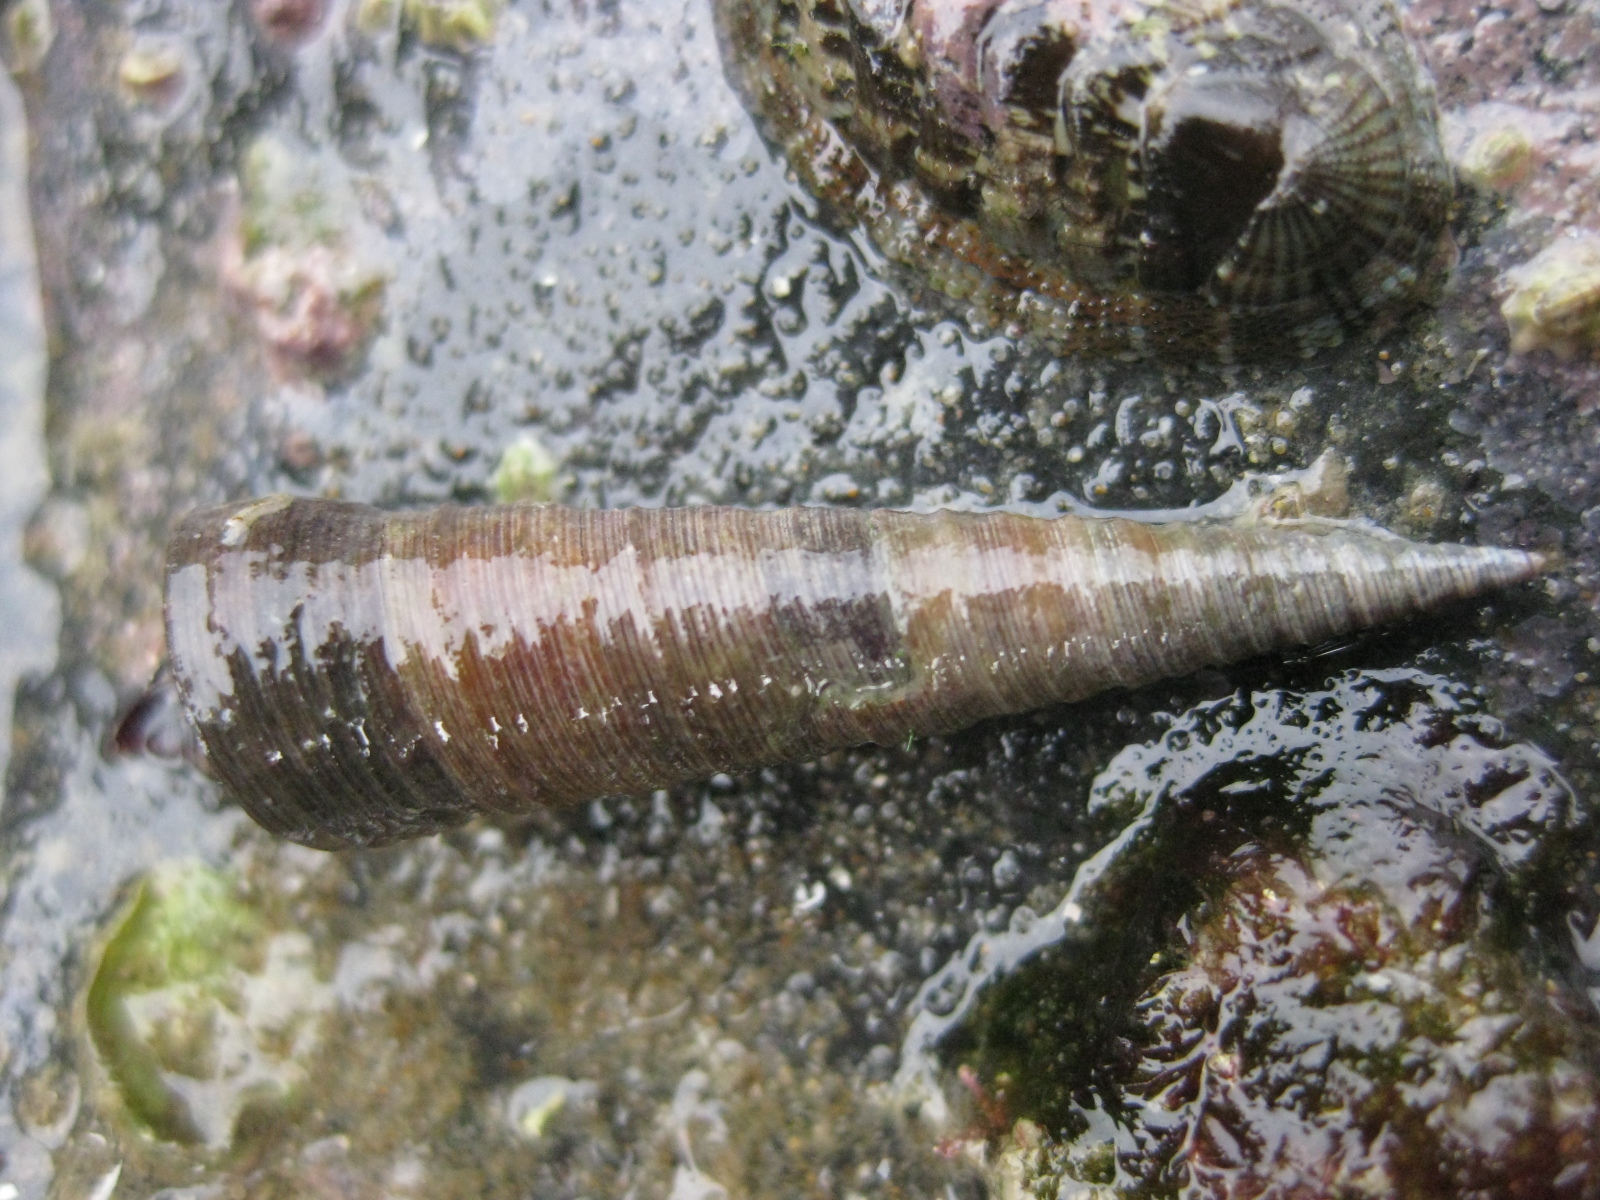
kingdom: Animalia
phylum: Mollusca
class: Gastropoda
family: Turritellidae
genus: Maoricolpus
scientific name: Maoricolpus roseus
